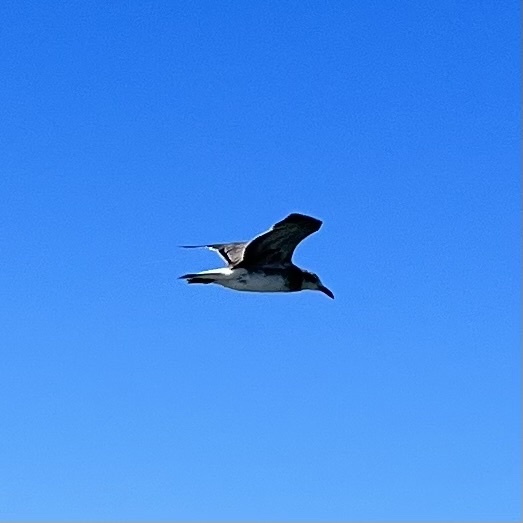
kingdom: Animalia
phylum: Chordata
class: Aves
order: Charadriiformes
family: Laridae
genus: Leucophaeus
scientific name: Leucophaeus atricilla
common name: Laughing gull
